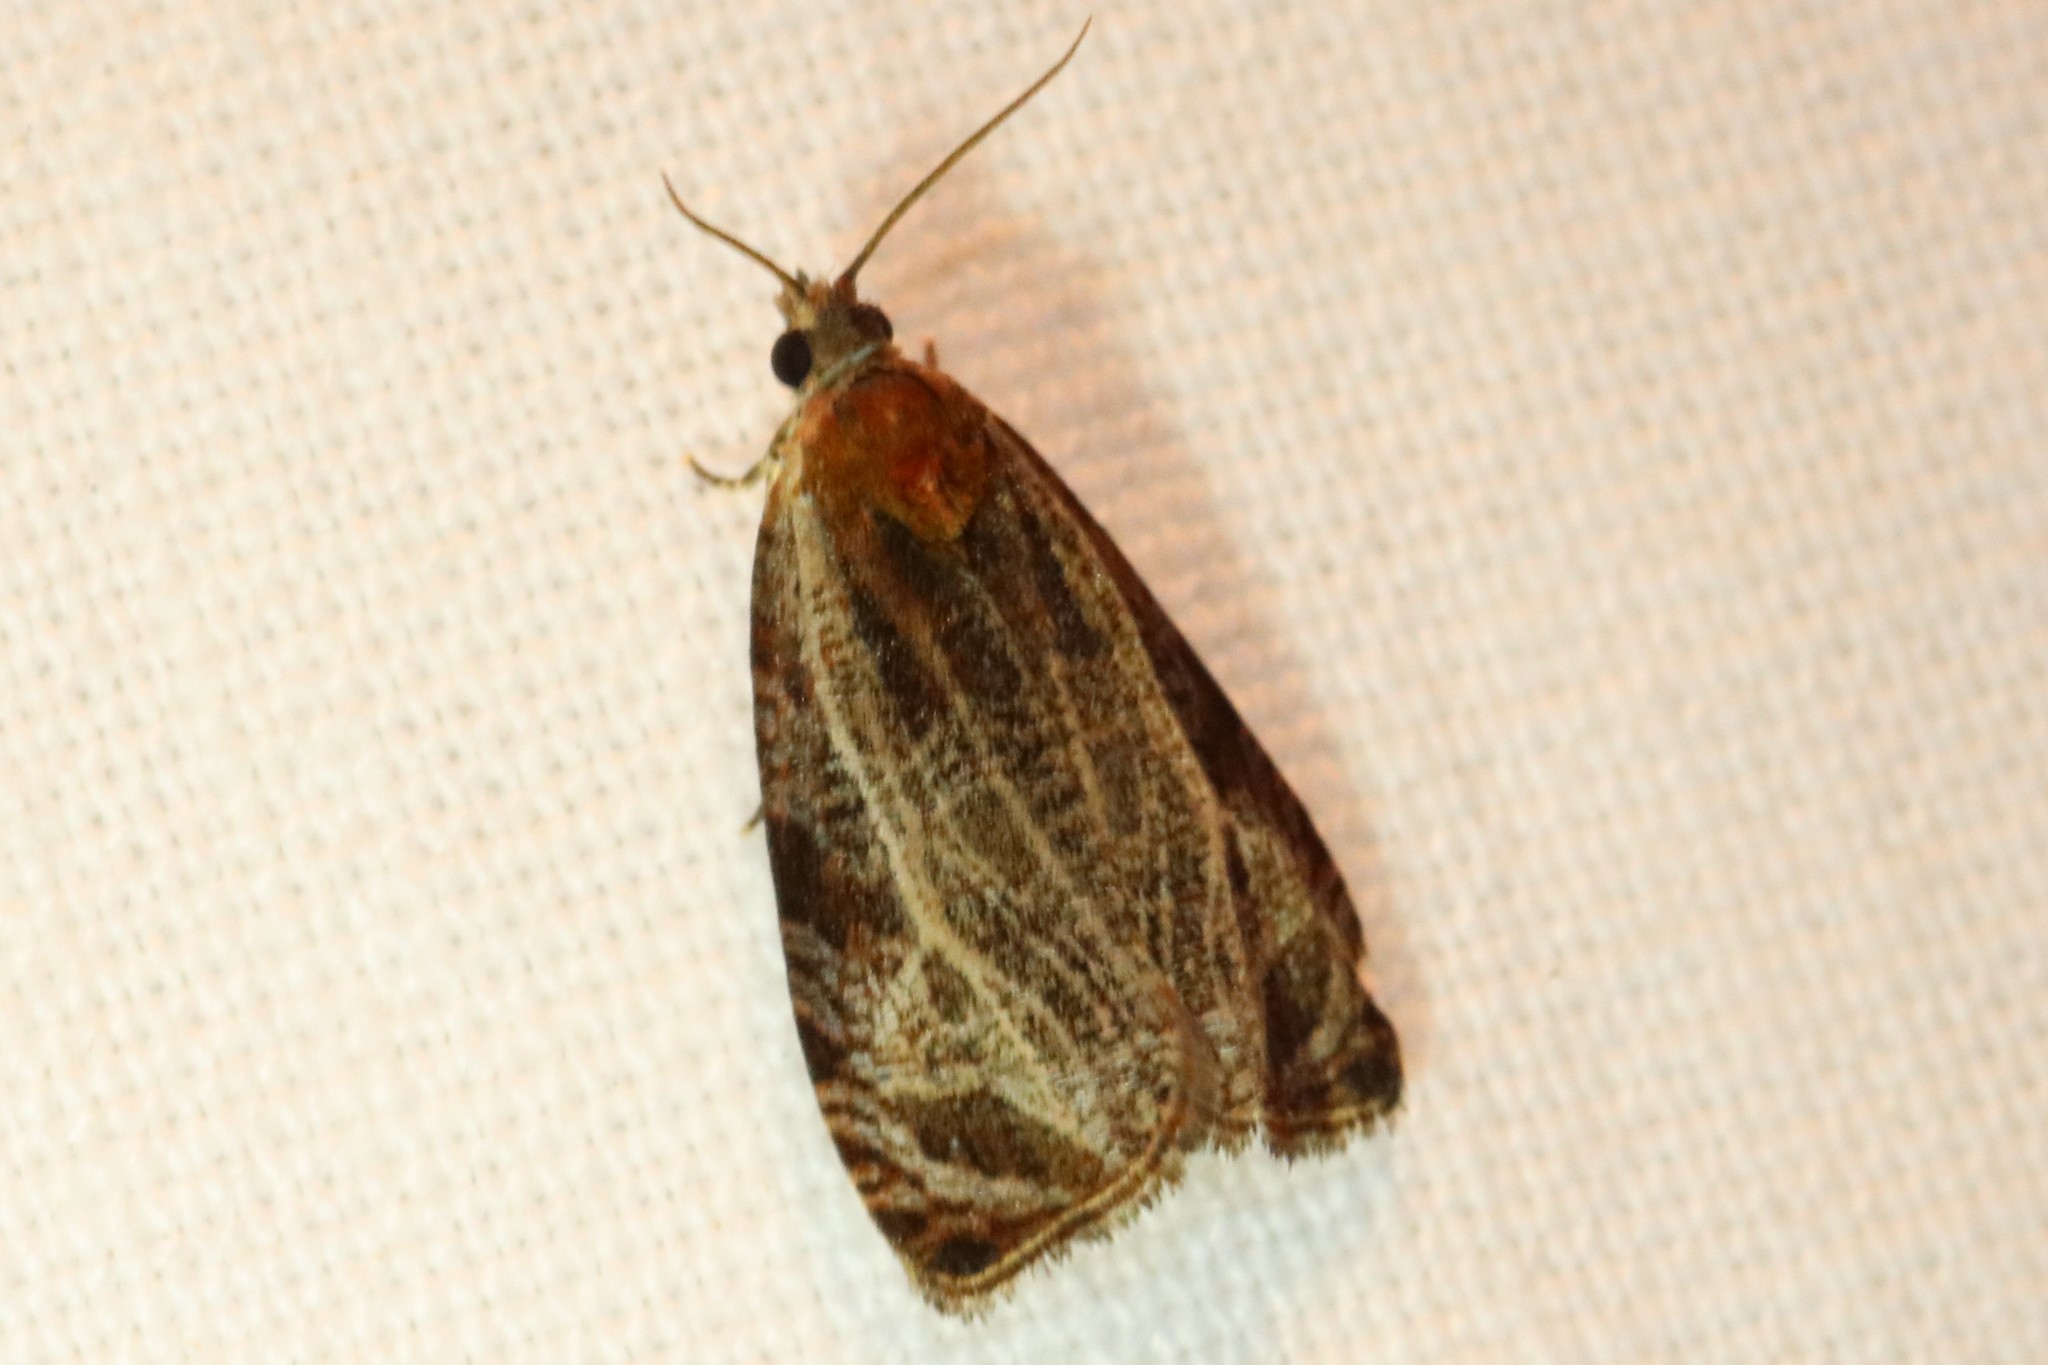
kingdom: Animalia
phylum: Arthropoda
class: Insecta
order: Lepidoptera
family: Tortricidae
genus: Olethreutes
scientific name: Olethreutes quadrifidum
